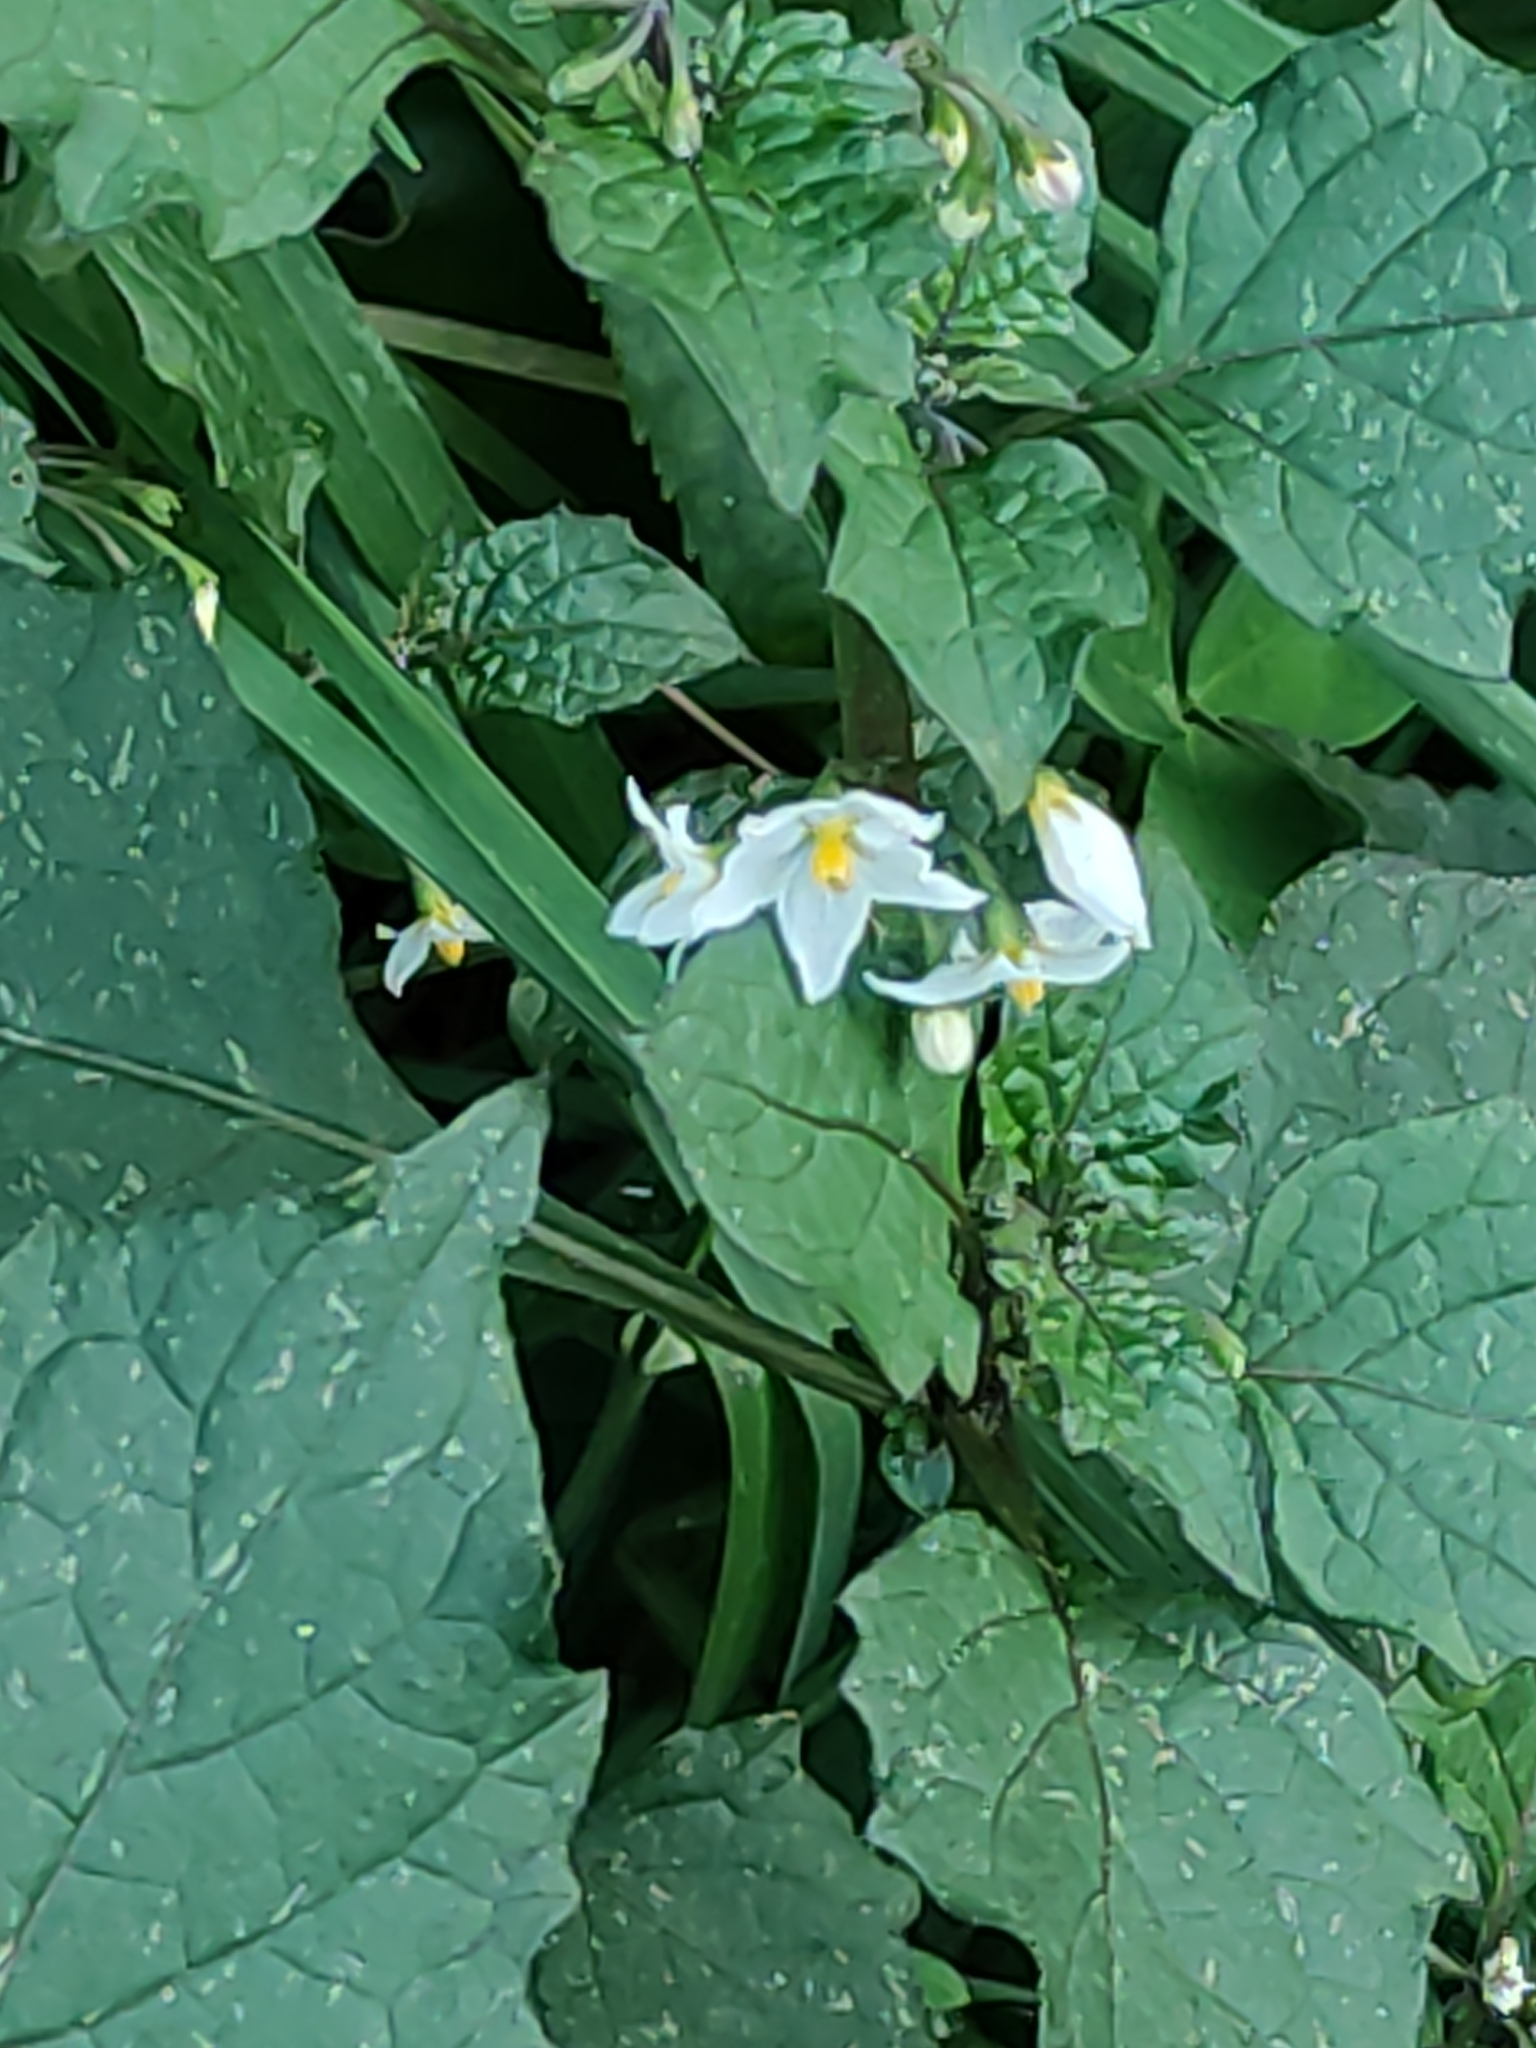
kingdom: Plantae
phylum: Tracheophyta
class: Magnoliopsida
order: Solanales
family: Solanaceae
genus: Solanum
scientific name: Solanum nigrum
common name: Black nightshade
